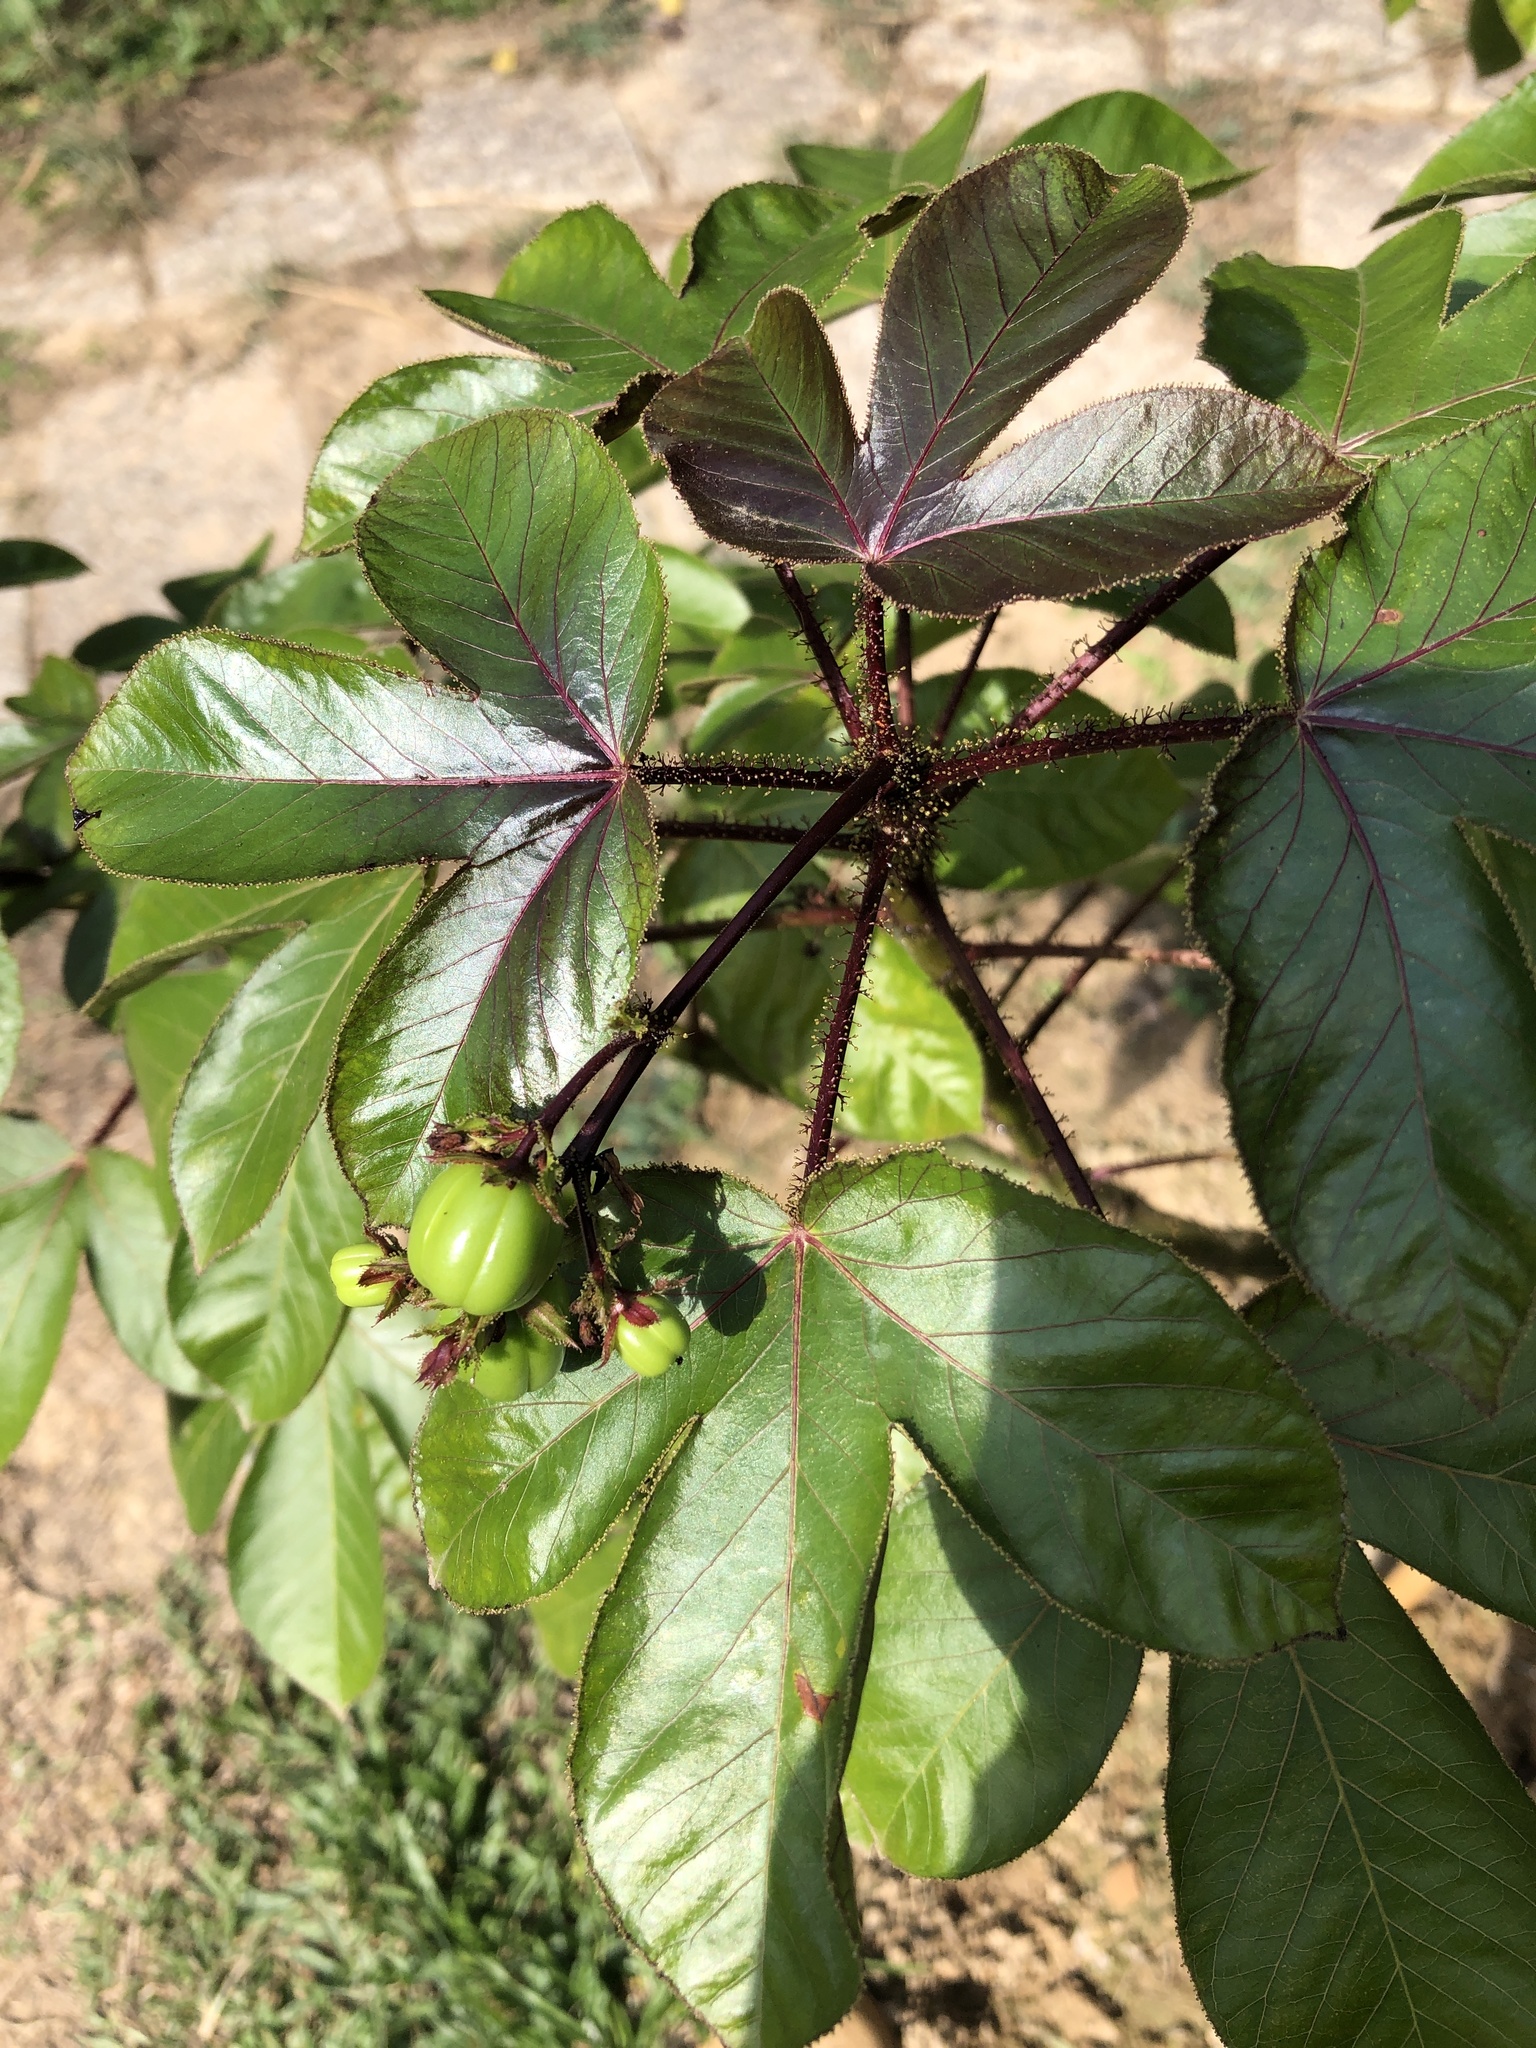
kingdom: Plantae
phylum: Tracheophyta
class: Magnoliopsida
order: Malpighiales
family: Euphorbiaceae
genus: Jatropha
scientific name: Jatropha gossypiifolia
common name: Bellyache bush
